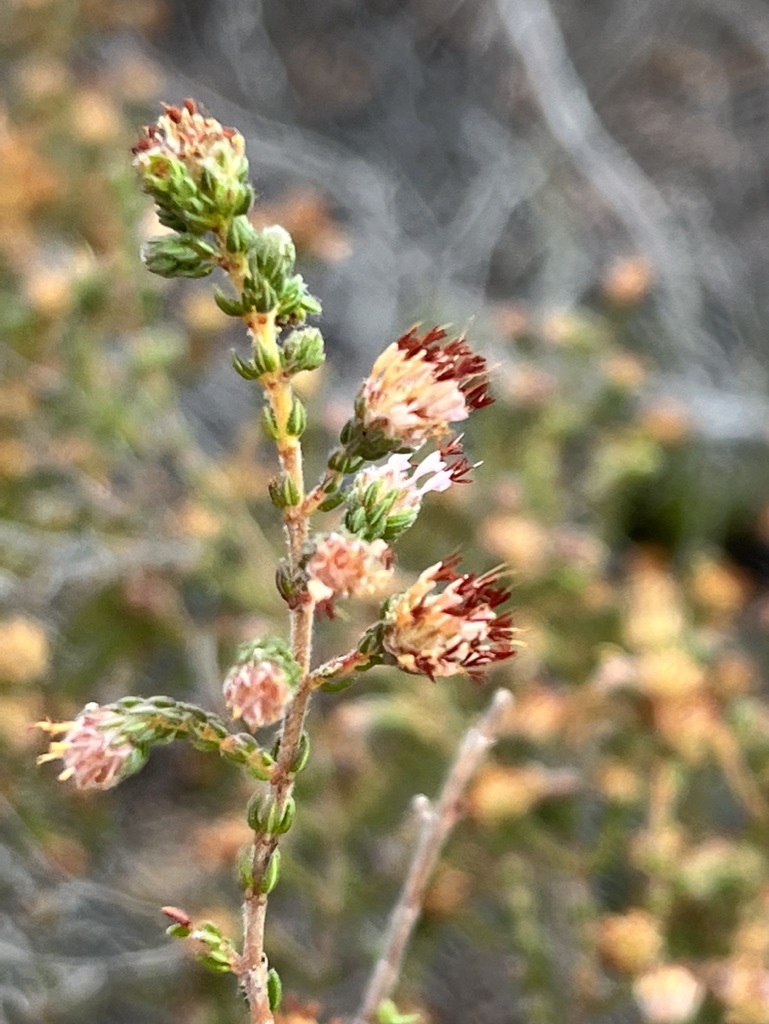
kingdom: Plantae
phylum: Tracheophyta
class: Magnoliopsida
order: Ericales
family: Ericaceae
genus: Erica
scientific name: Erica ericoides
